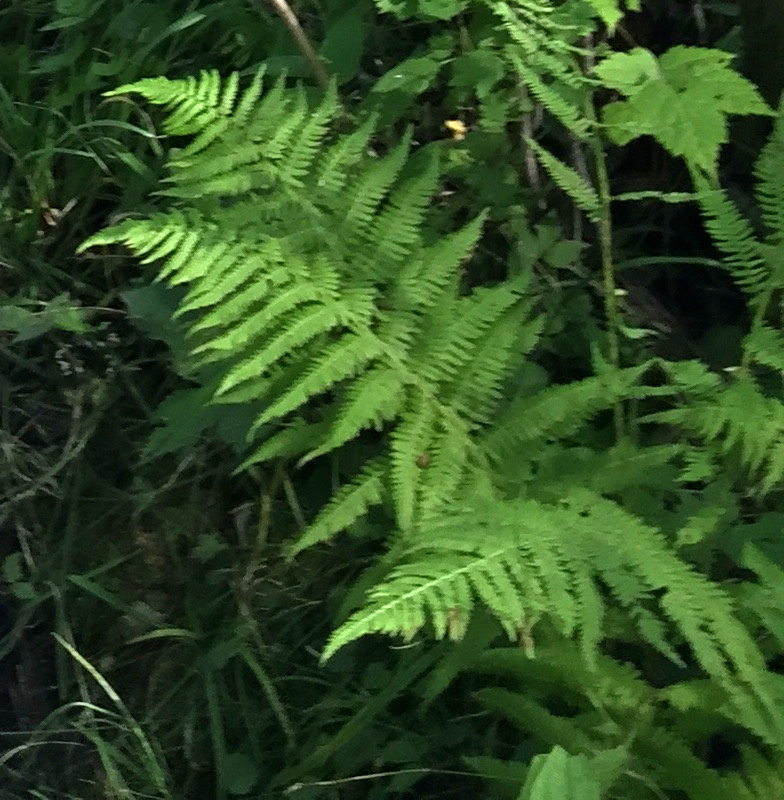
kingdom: Plantae
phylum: Tracheophyta
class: Polypodiopsida
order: Polypodiales
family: Athyriaceae
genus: Athyrium
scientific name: Athyrium angustum
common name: Northern lady fern
